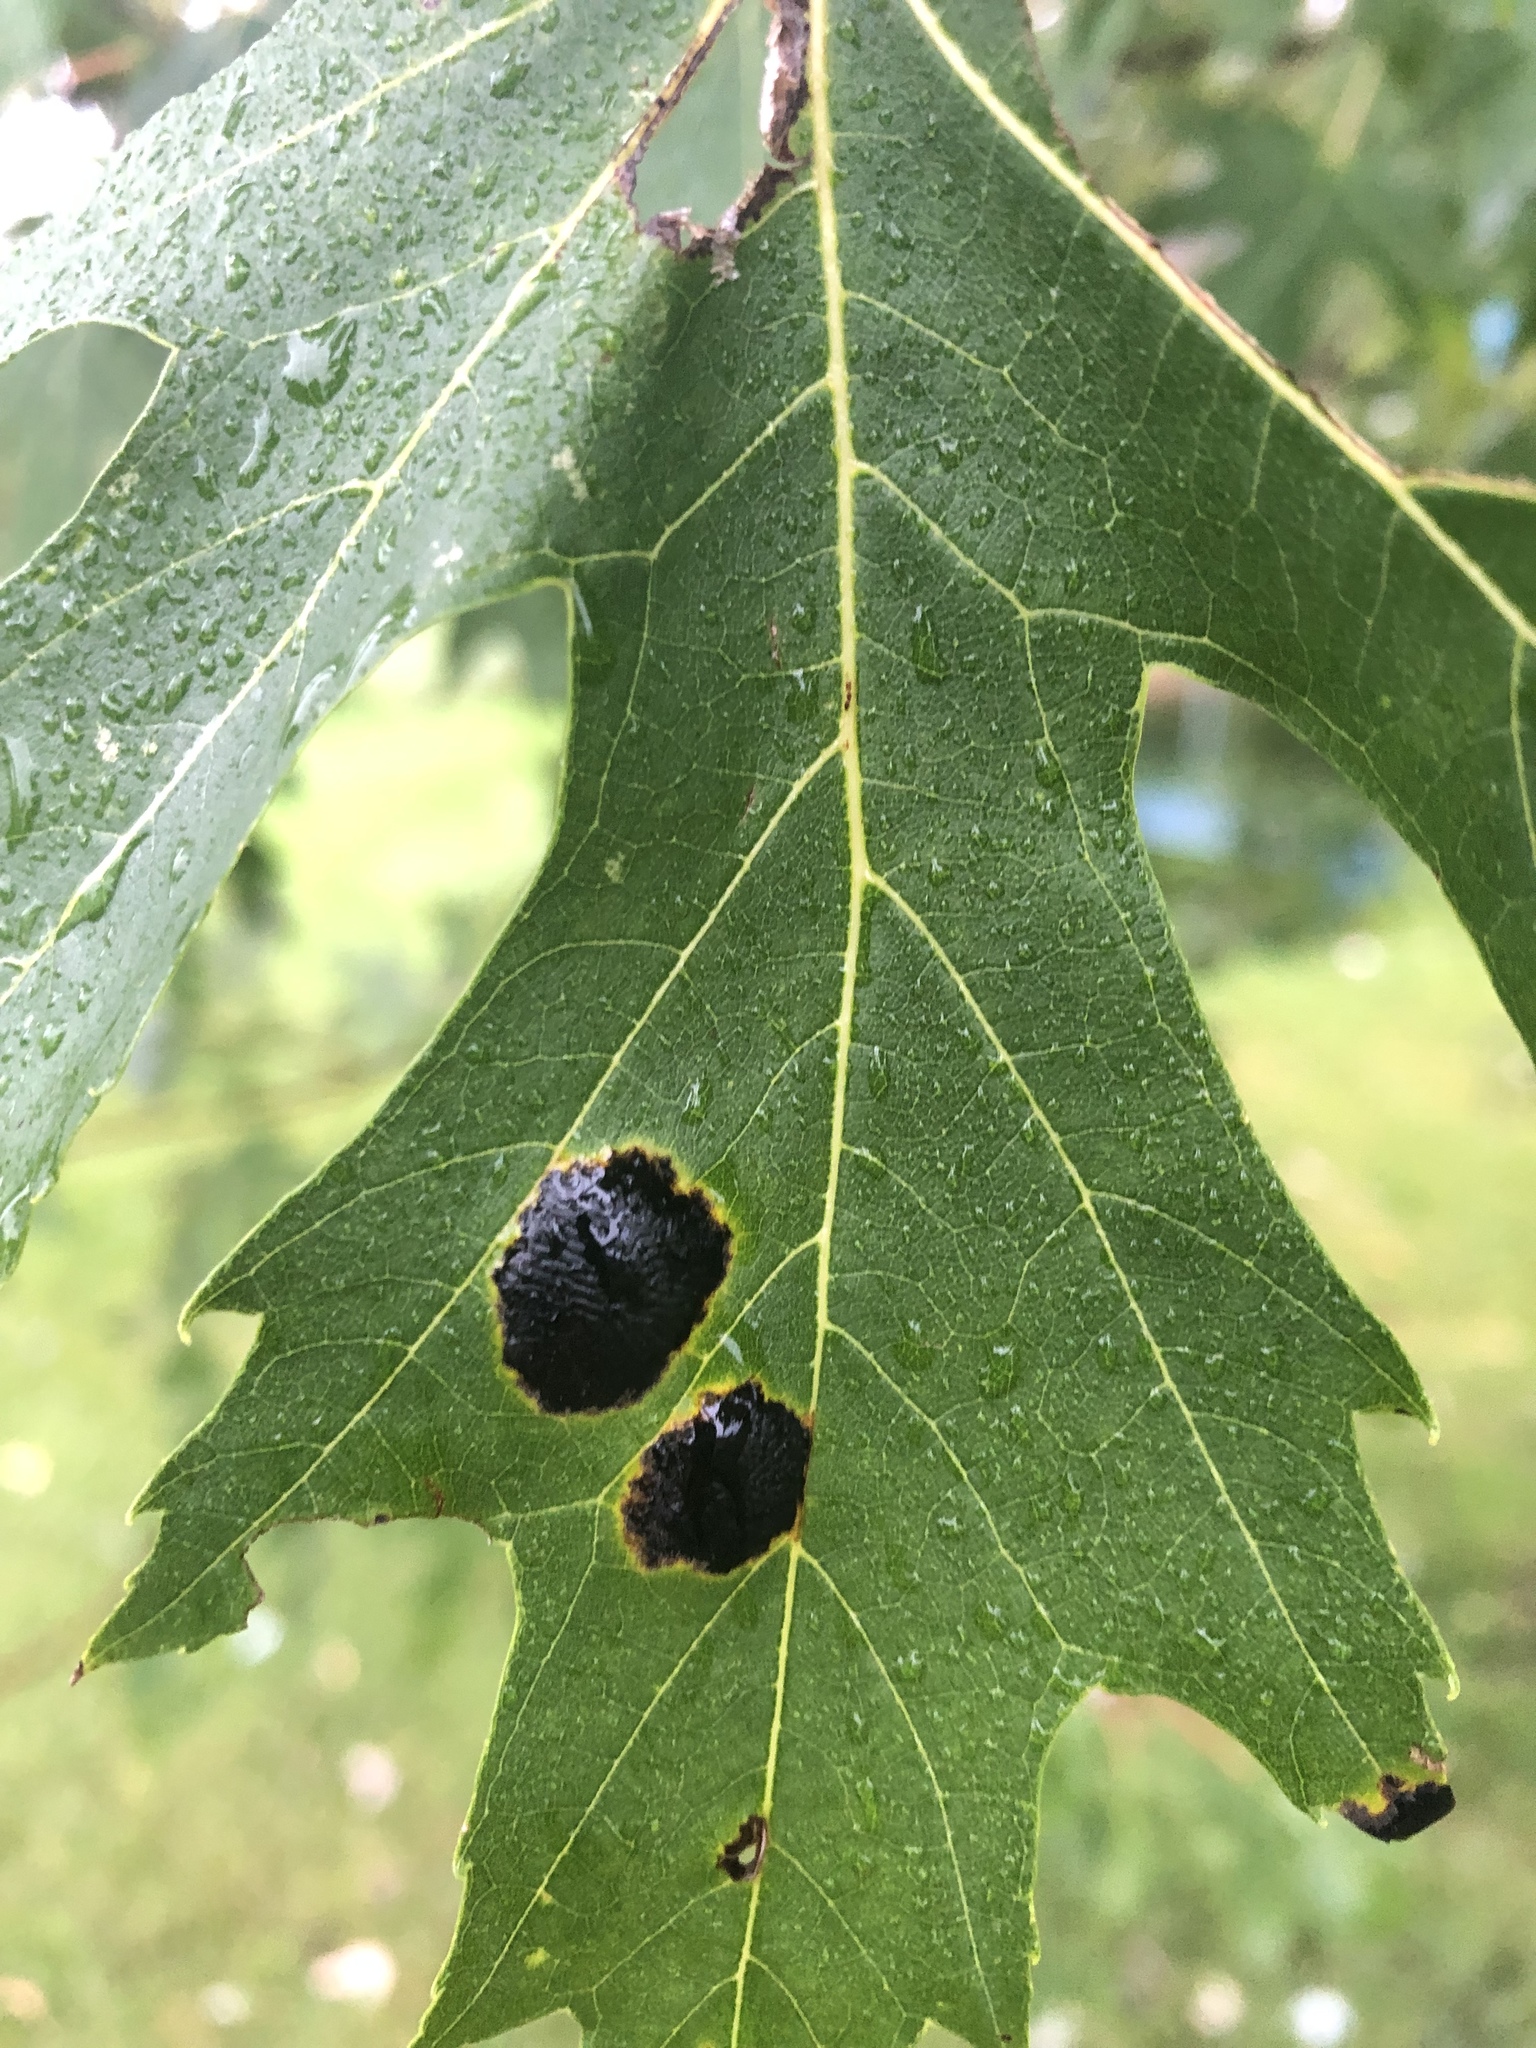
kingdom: Fungi
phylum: Ascomycota
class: Leotiomycetes
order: Rhytismatales
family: Rhytismataceae
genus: Rhytisma
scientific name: Rhytisma americanum
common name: American tar spot
